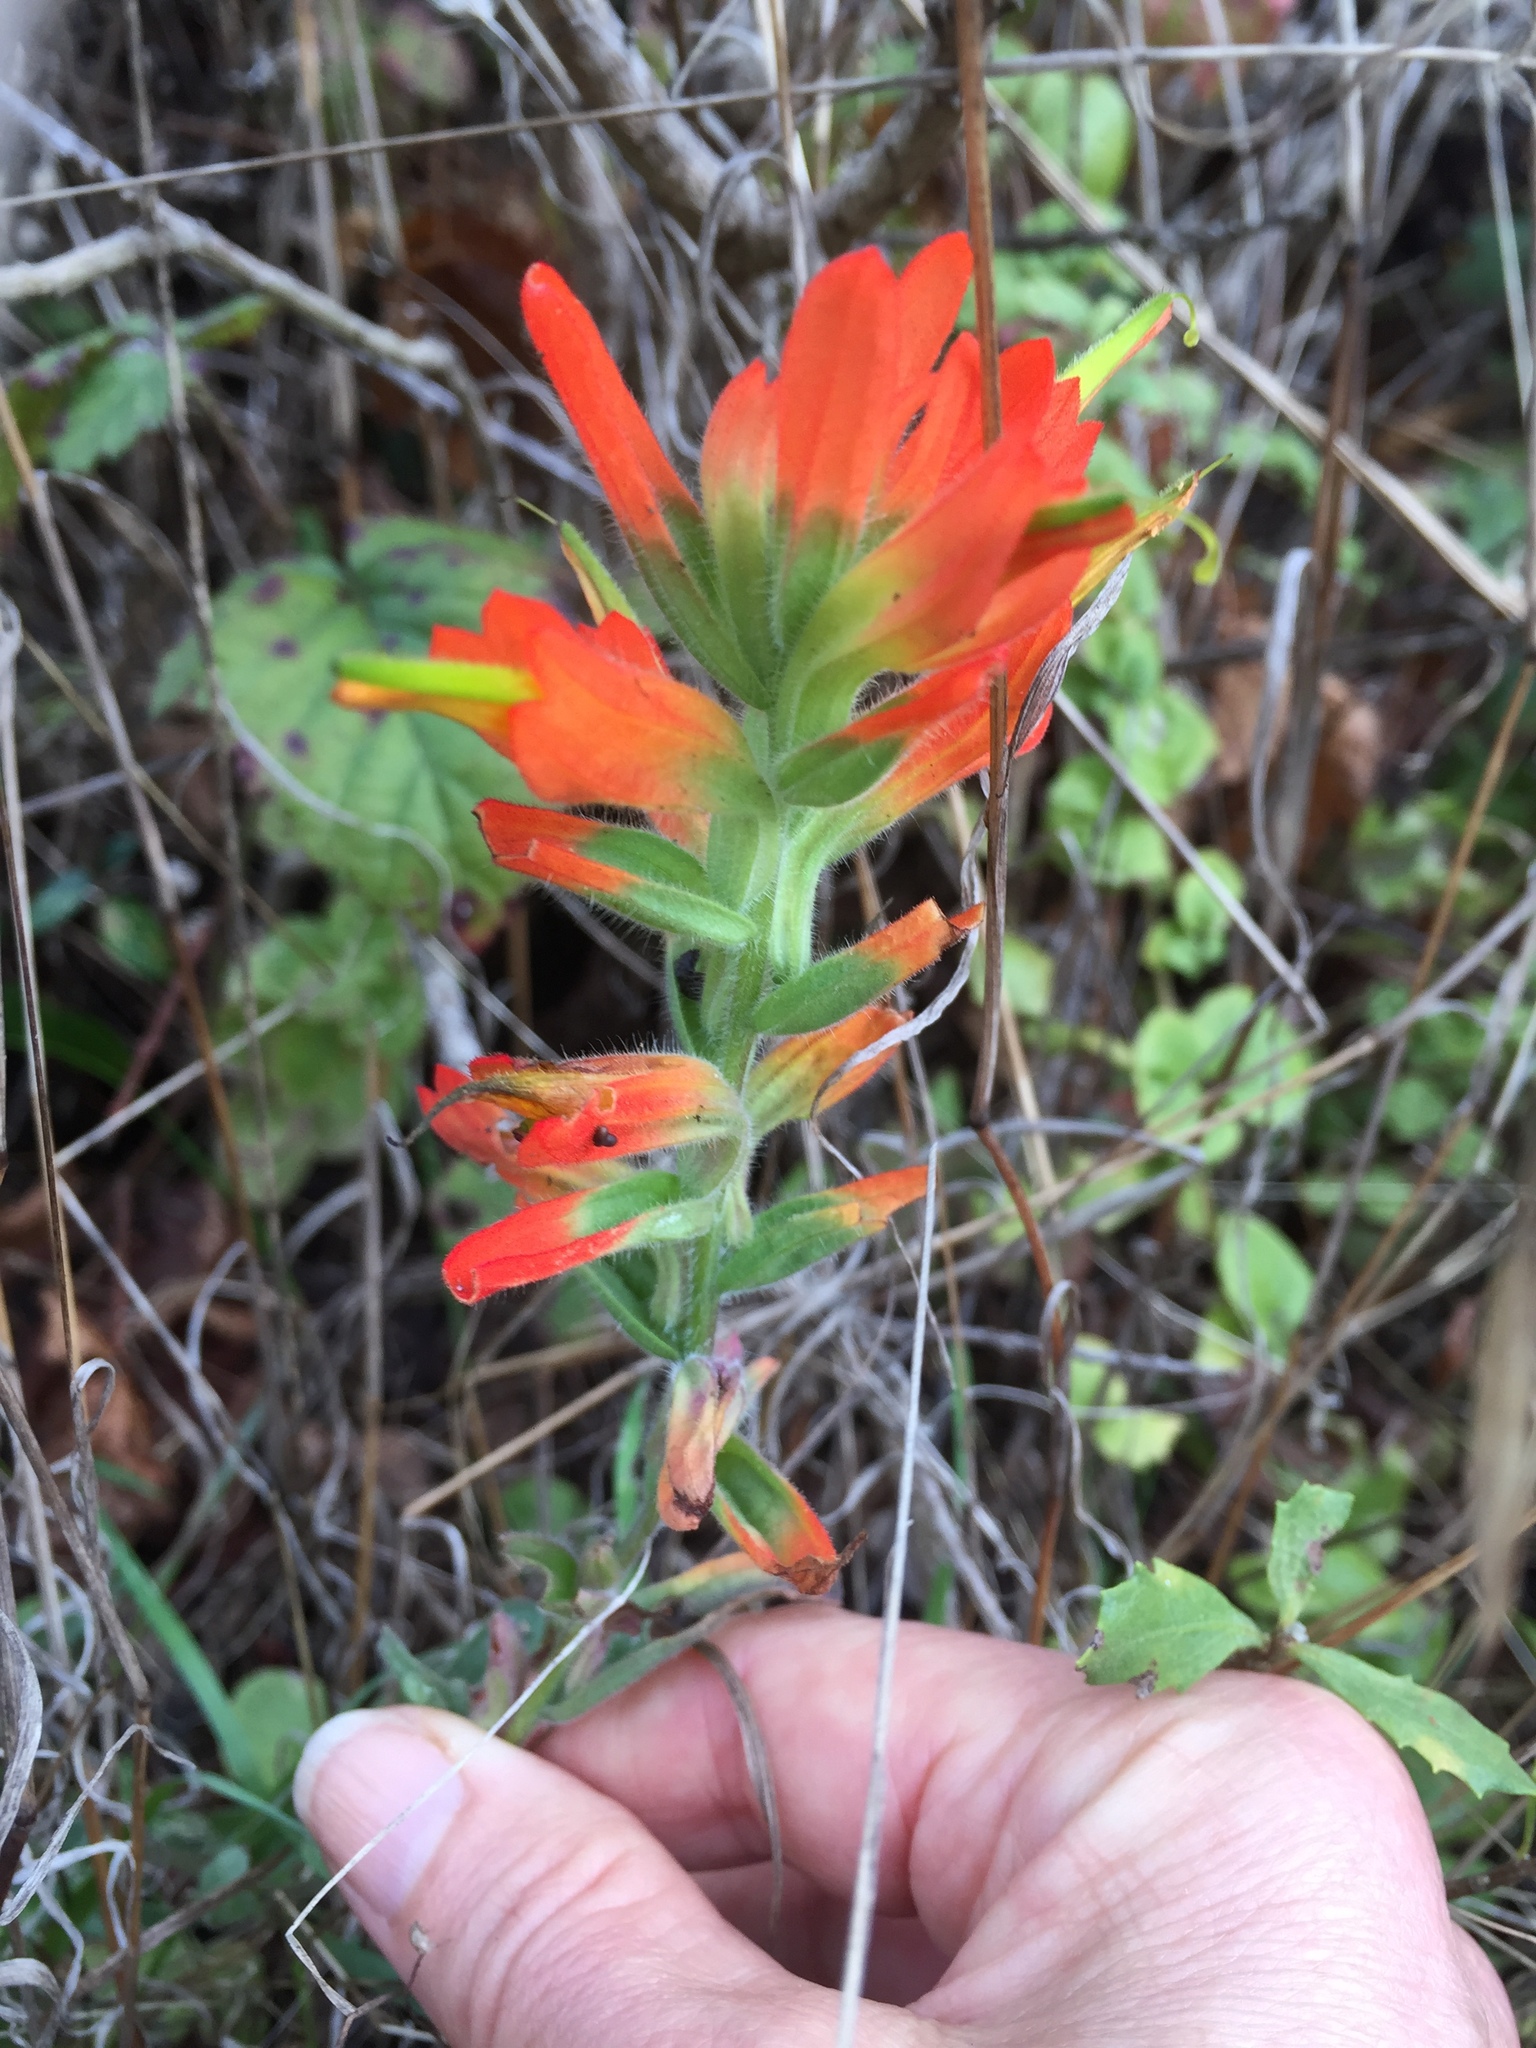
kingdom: Plantae
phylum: Tracheophyta
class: Magnoliopsida
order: Lamiales
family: Orobanchaceae
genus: Castilleja
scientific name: Castilleja subinclusa
